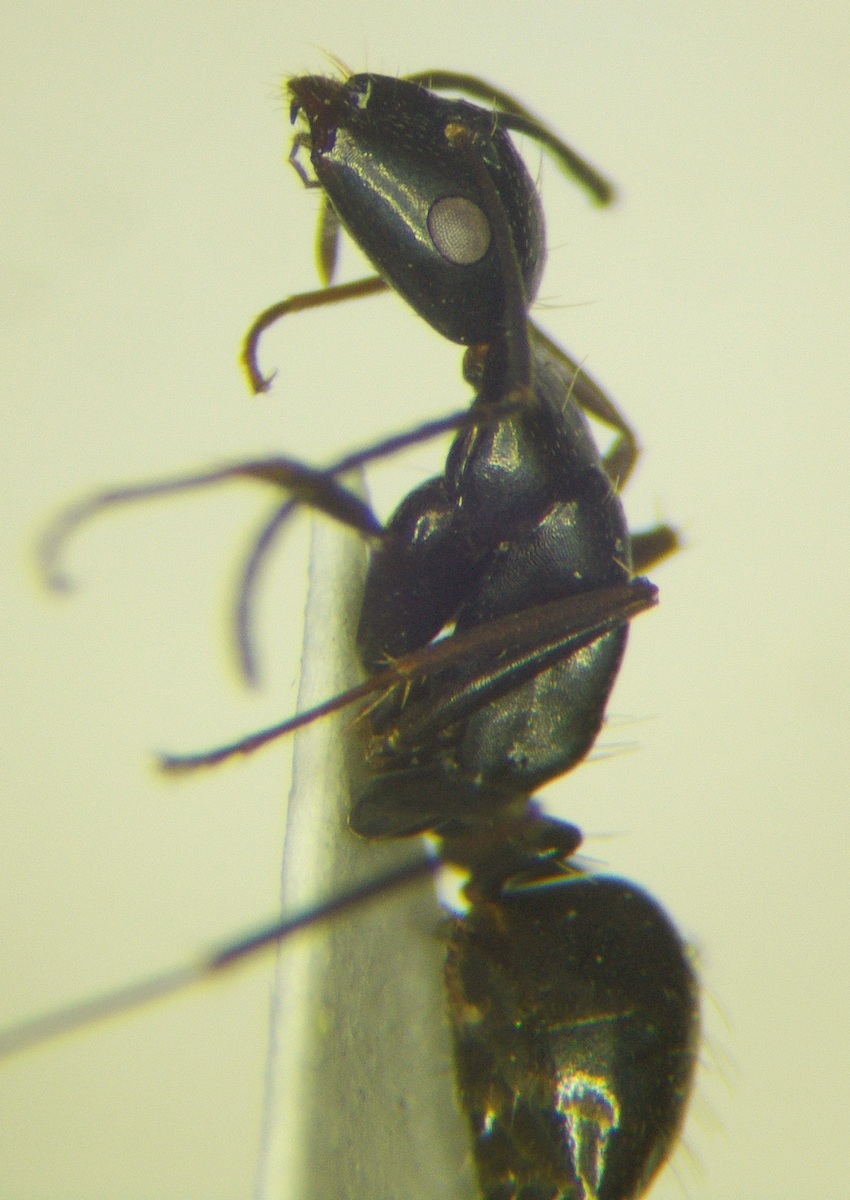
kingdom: Animalia
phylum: Arthropoda
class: Insecta
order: Hymenoptera
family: Formicidae
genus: Camponotus
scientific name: Camponotus aethiops
